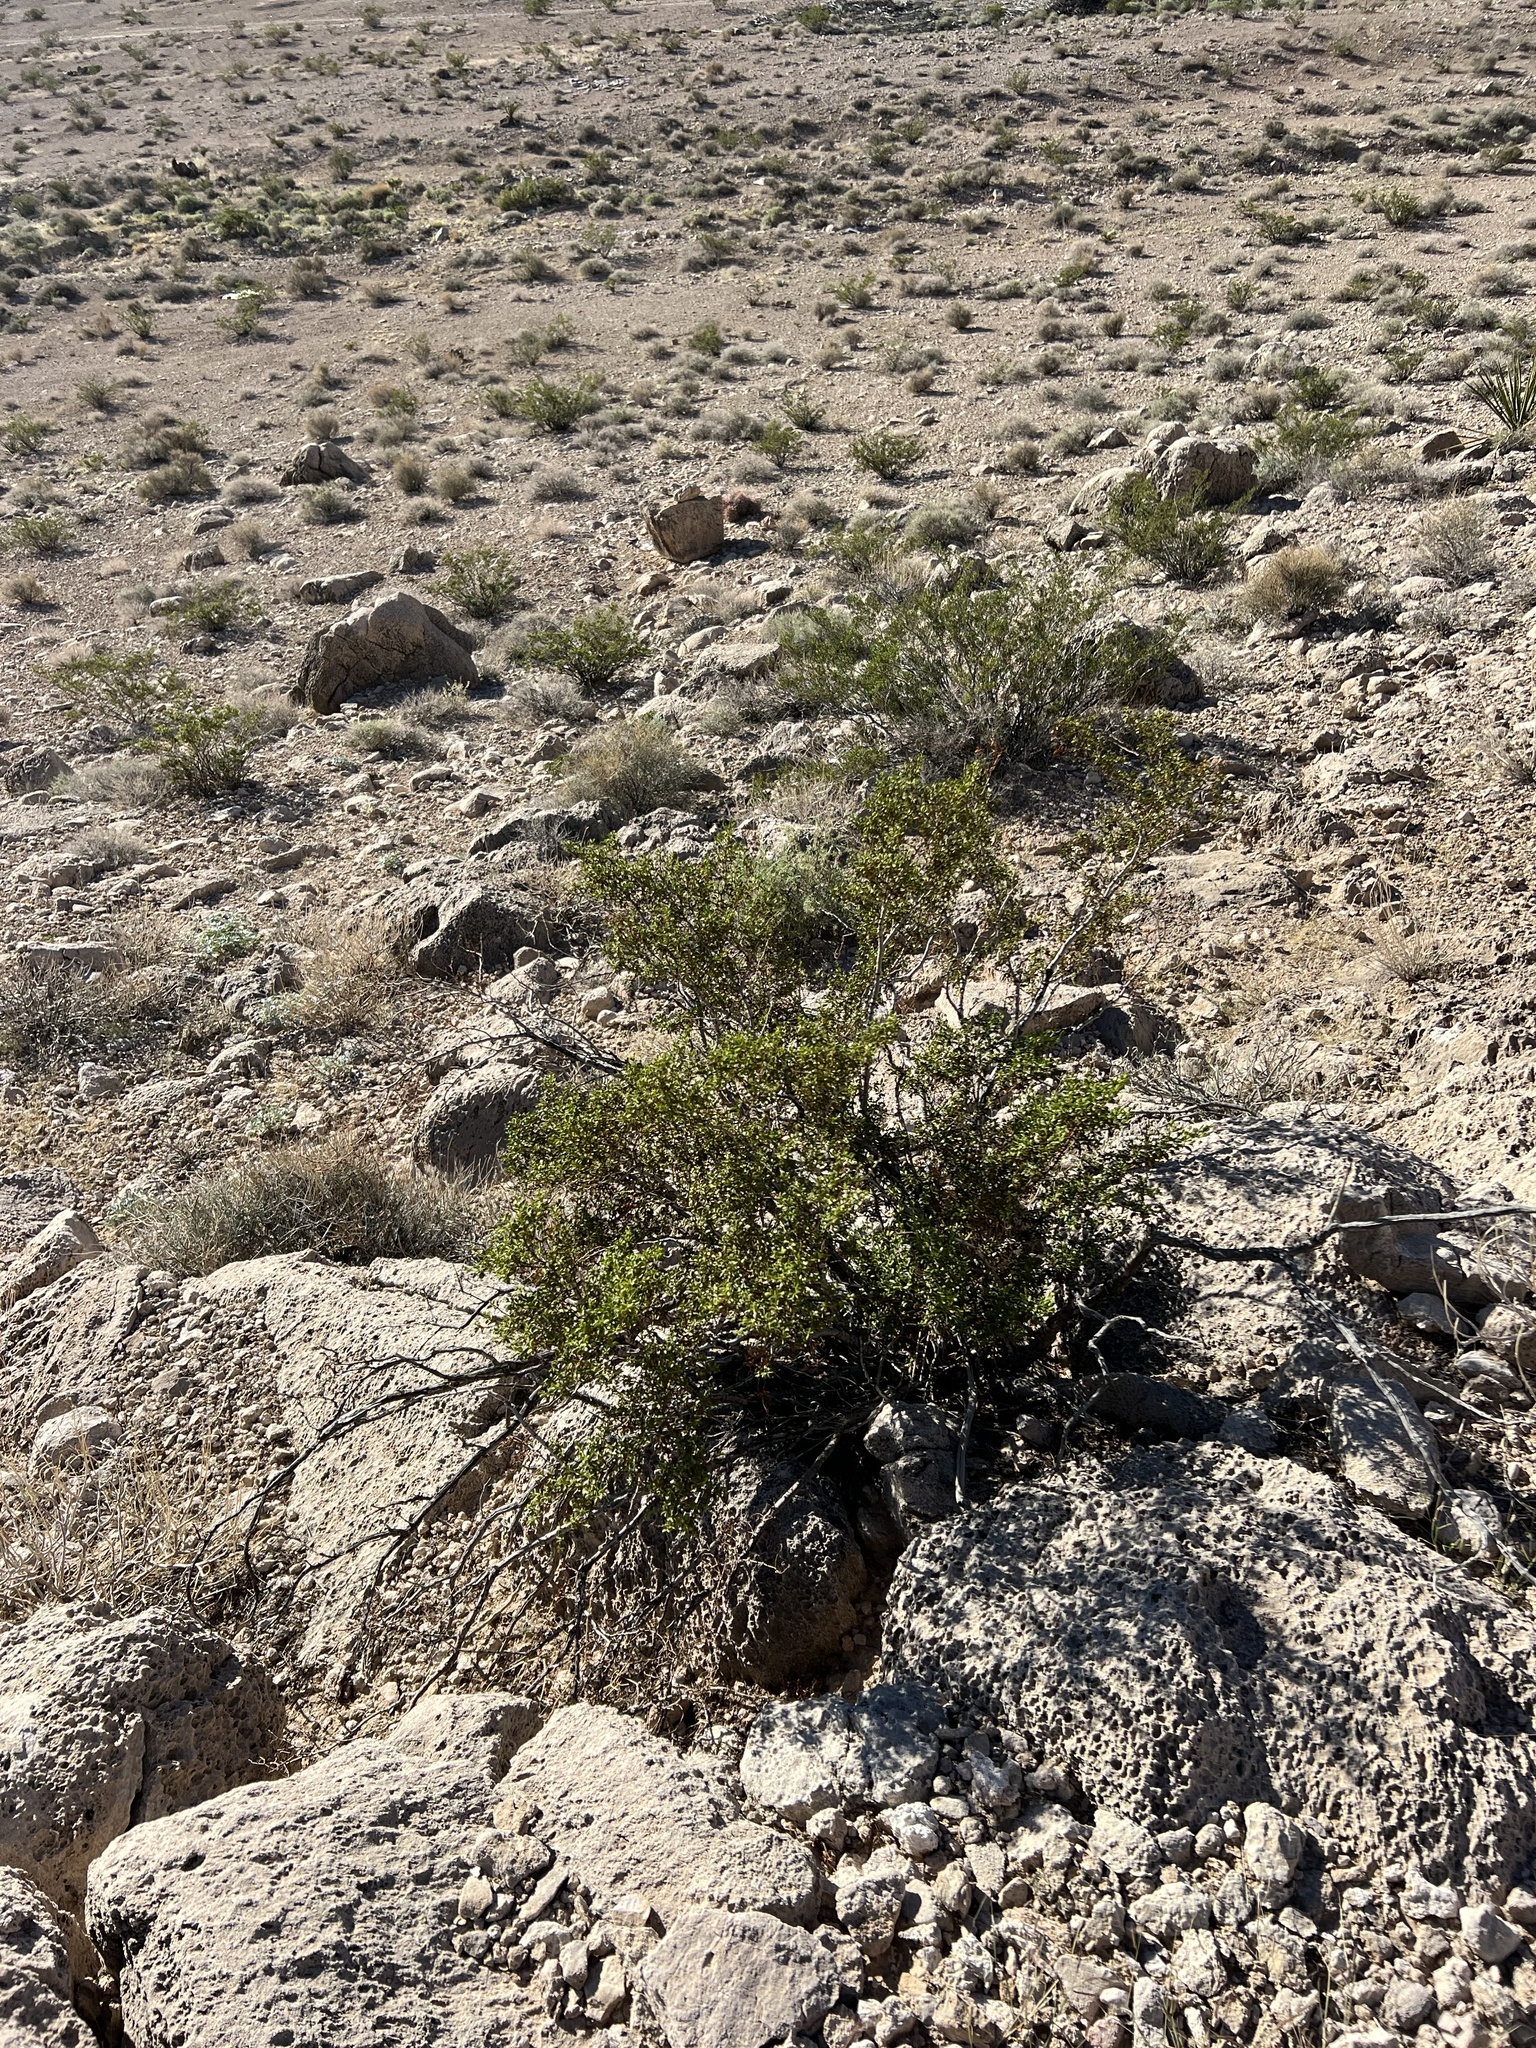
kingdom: Plantae
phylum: Tracheophyta
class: Magnoliopsida
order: Zygophyllales
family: Zygophyllaceae
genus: Larrea
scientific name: Larrea tridentata
